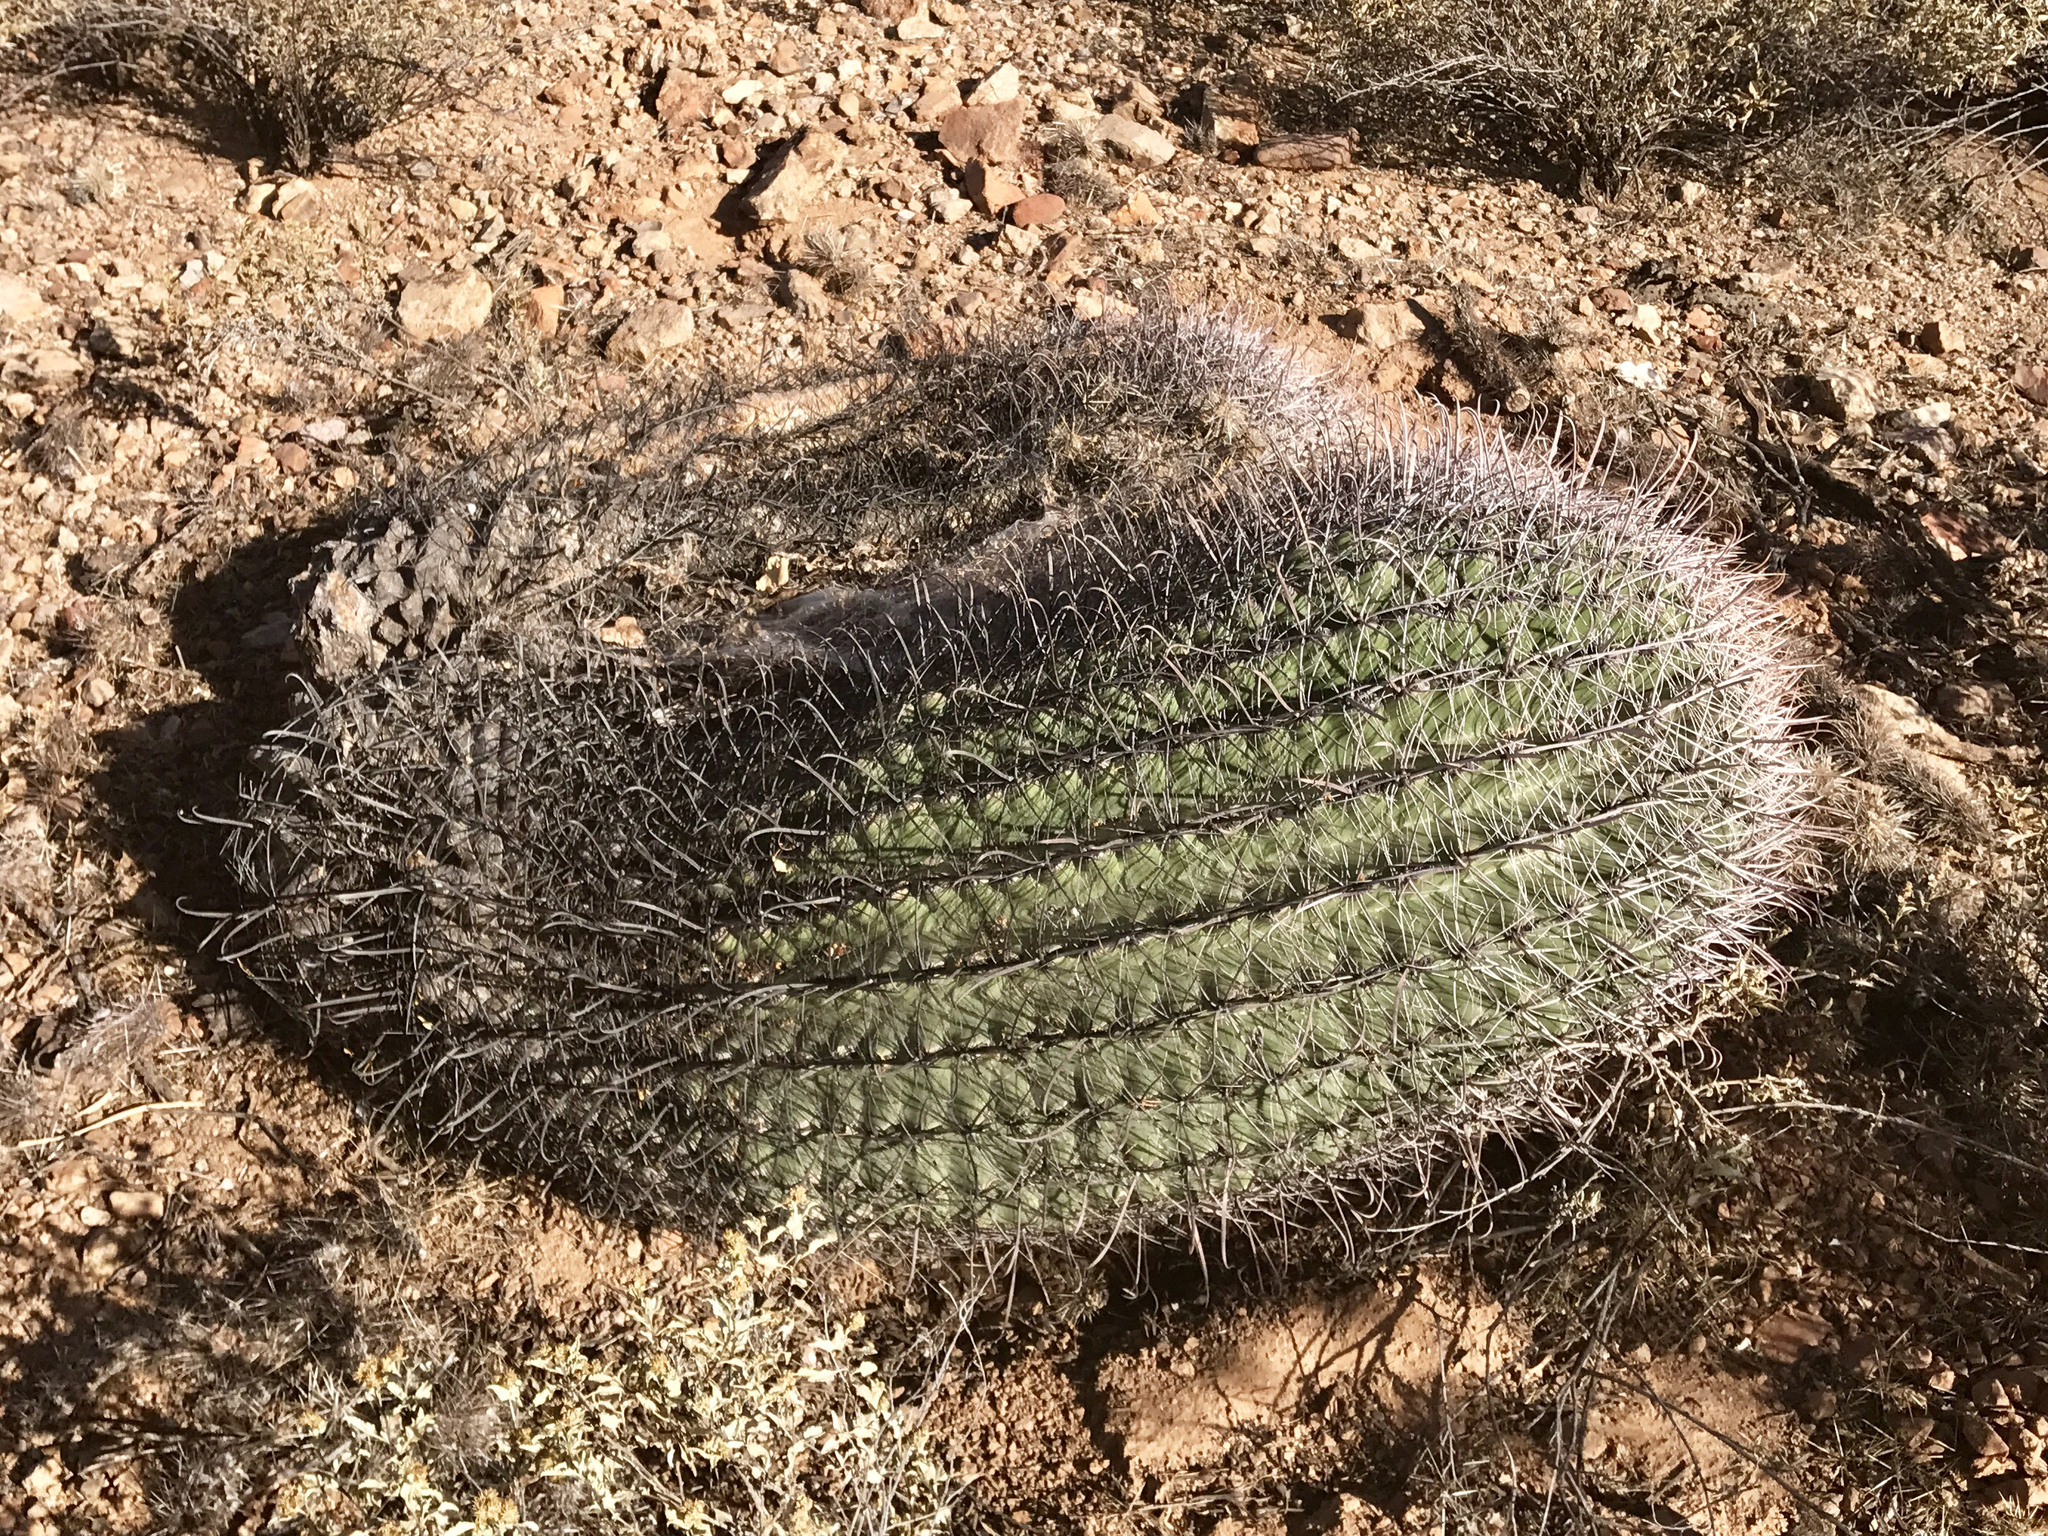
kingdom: Plantae
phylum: Tracheophyta
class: Magnoliopsida
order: Caryophyllales
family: Cactaceae
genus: Ferocactus
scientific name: Ferocactus wislizeni
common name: Candy barrel cactus
